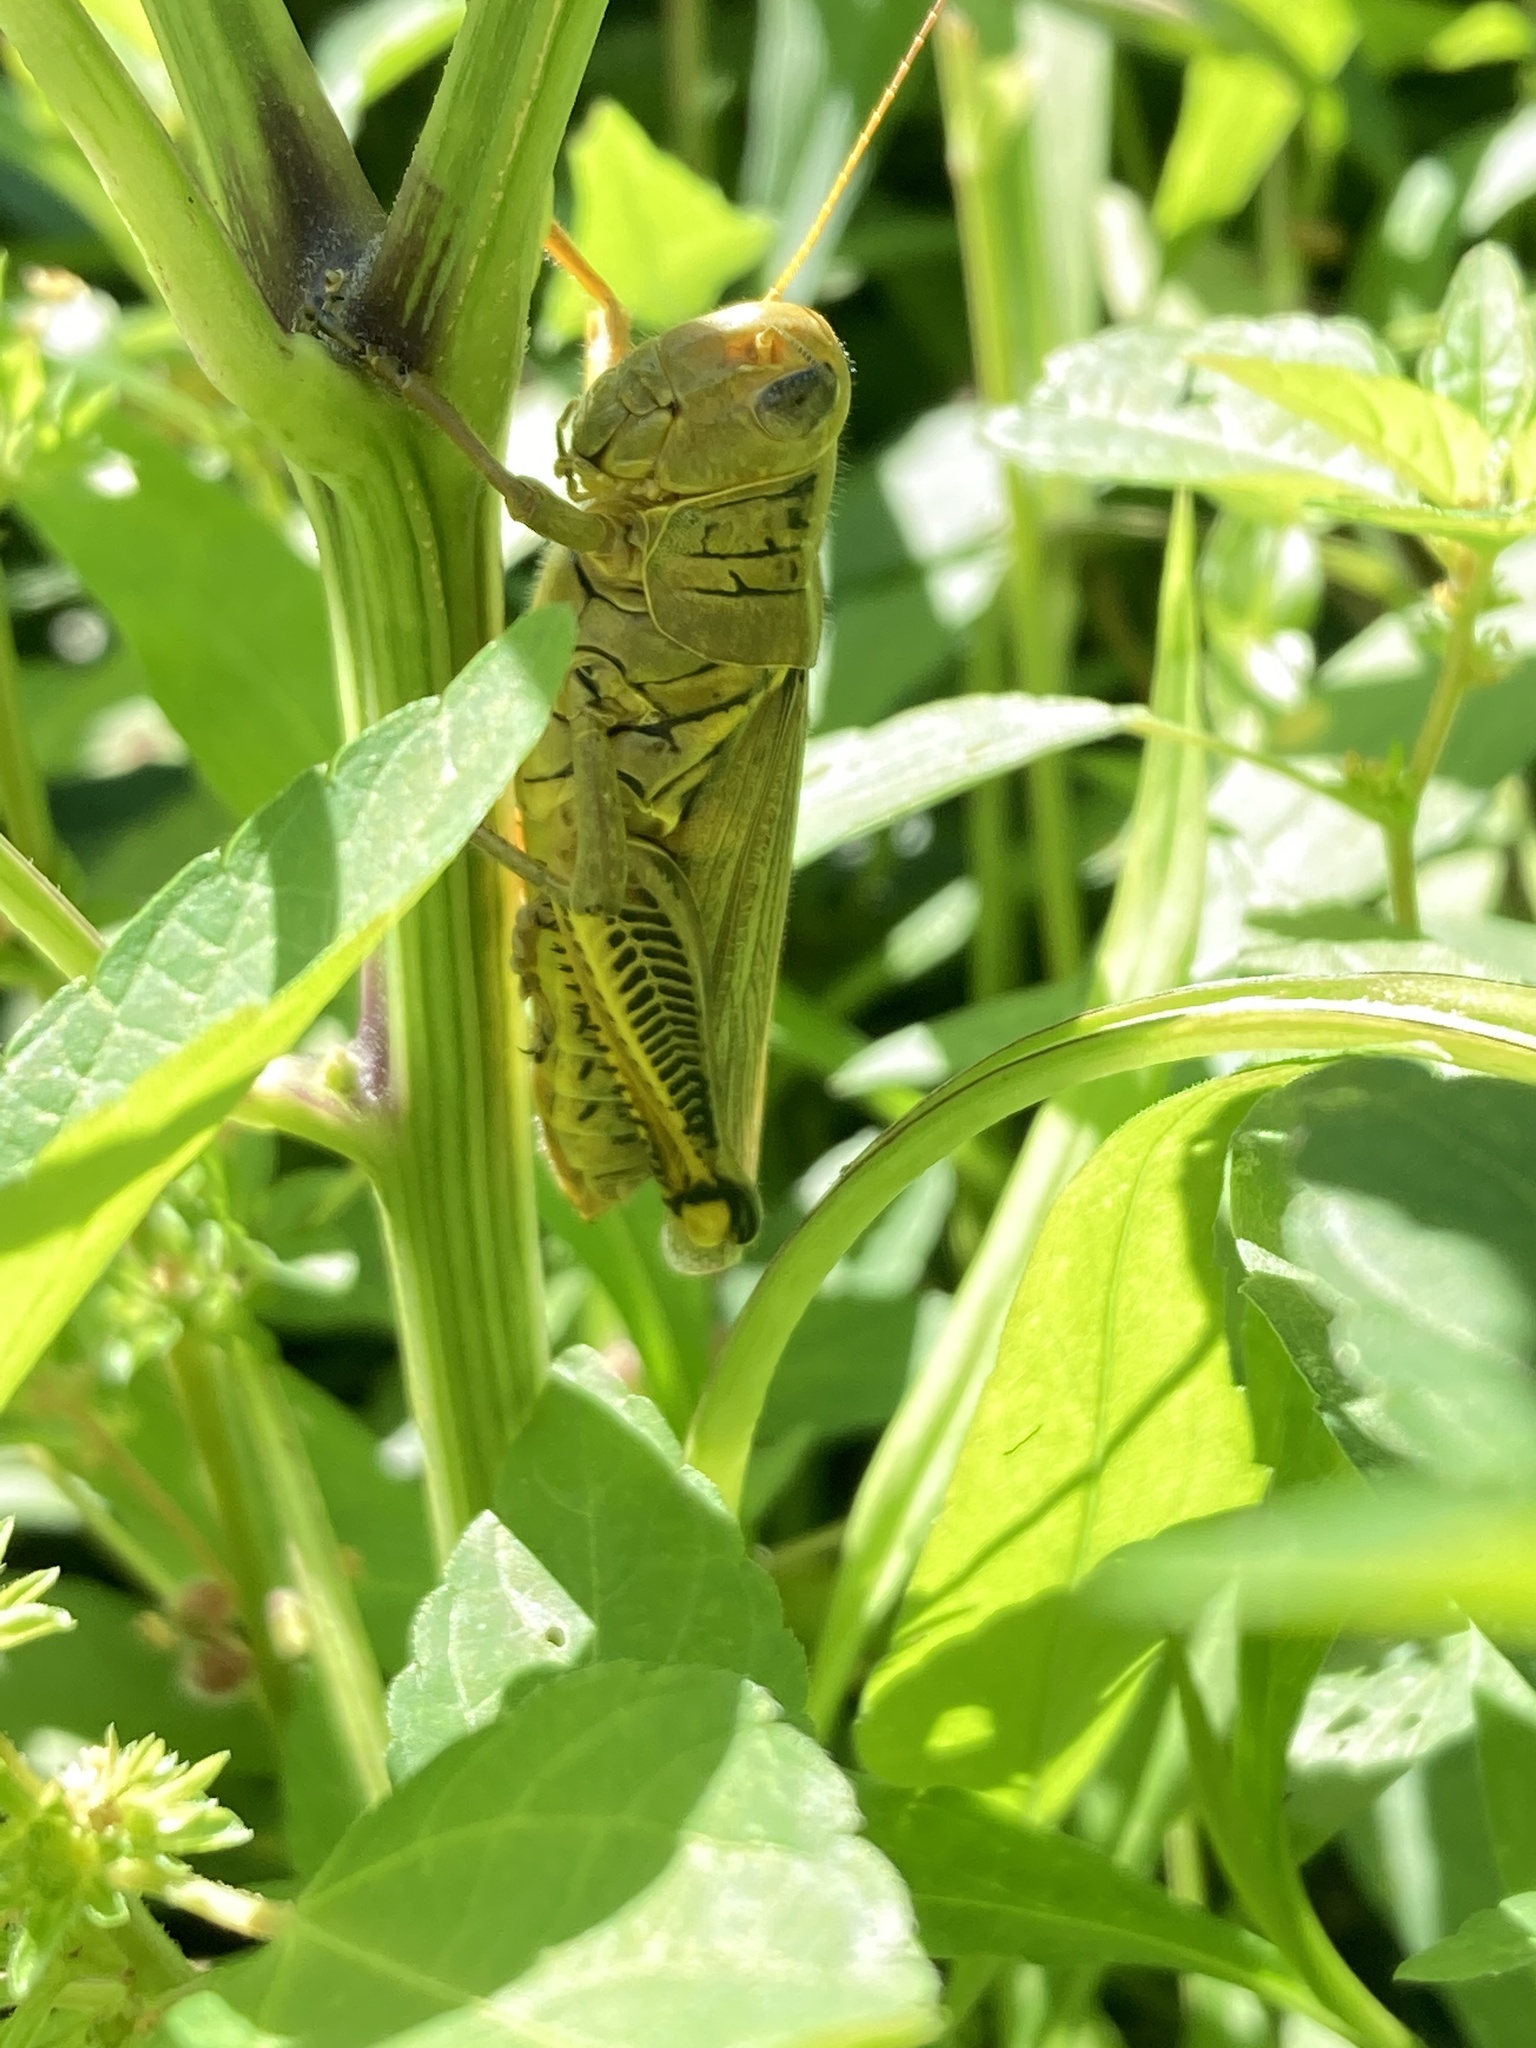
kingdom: Animalia
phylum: Arthropoda
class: Insecta
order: Orthoptera
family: Acrididae
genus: Melanoplus
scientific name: Melanoplus differentialis
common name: Differential grasshopper
